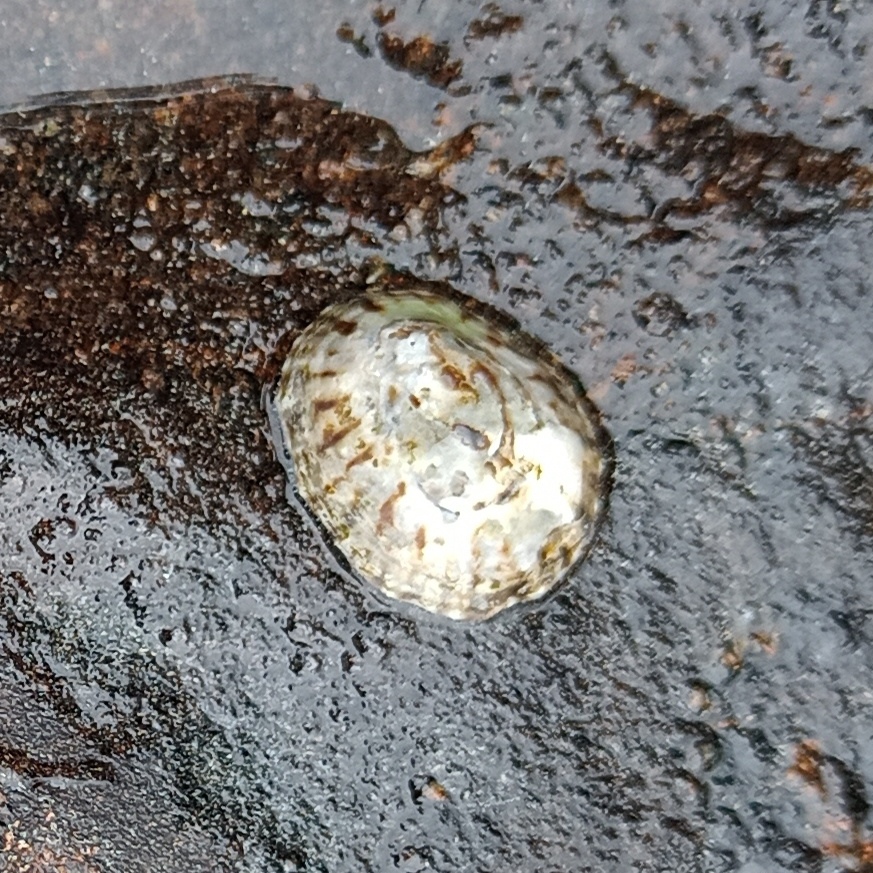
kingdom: Animalia
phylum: Mollusca
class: Gastropoda
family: Lottiidae
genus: Lottia
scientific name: Lottia subrugosa
